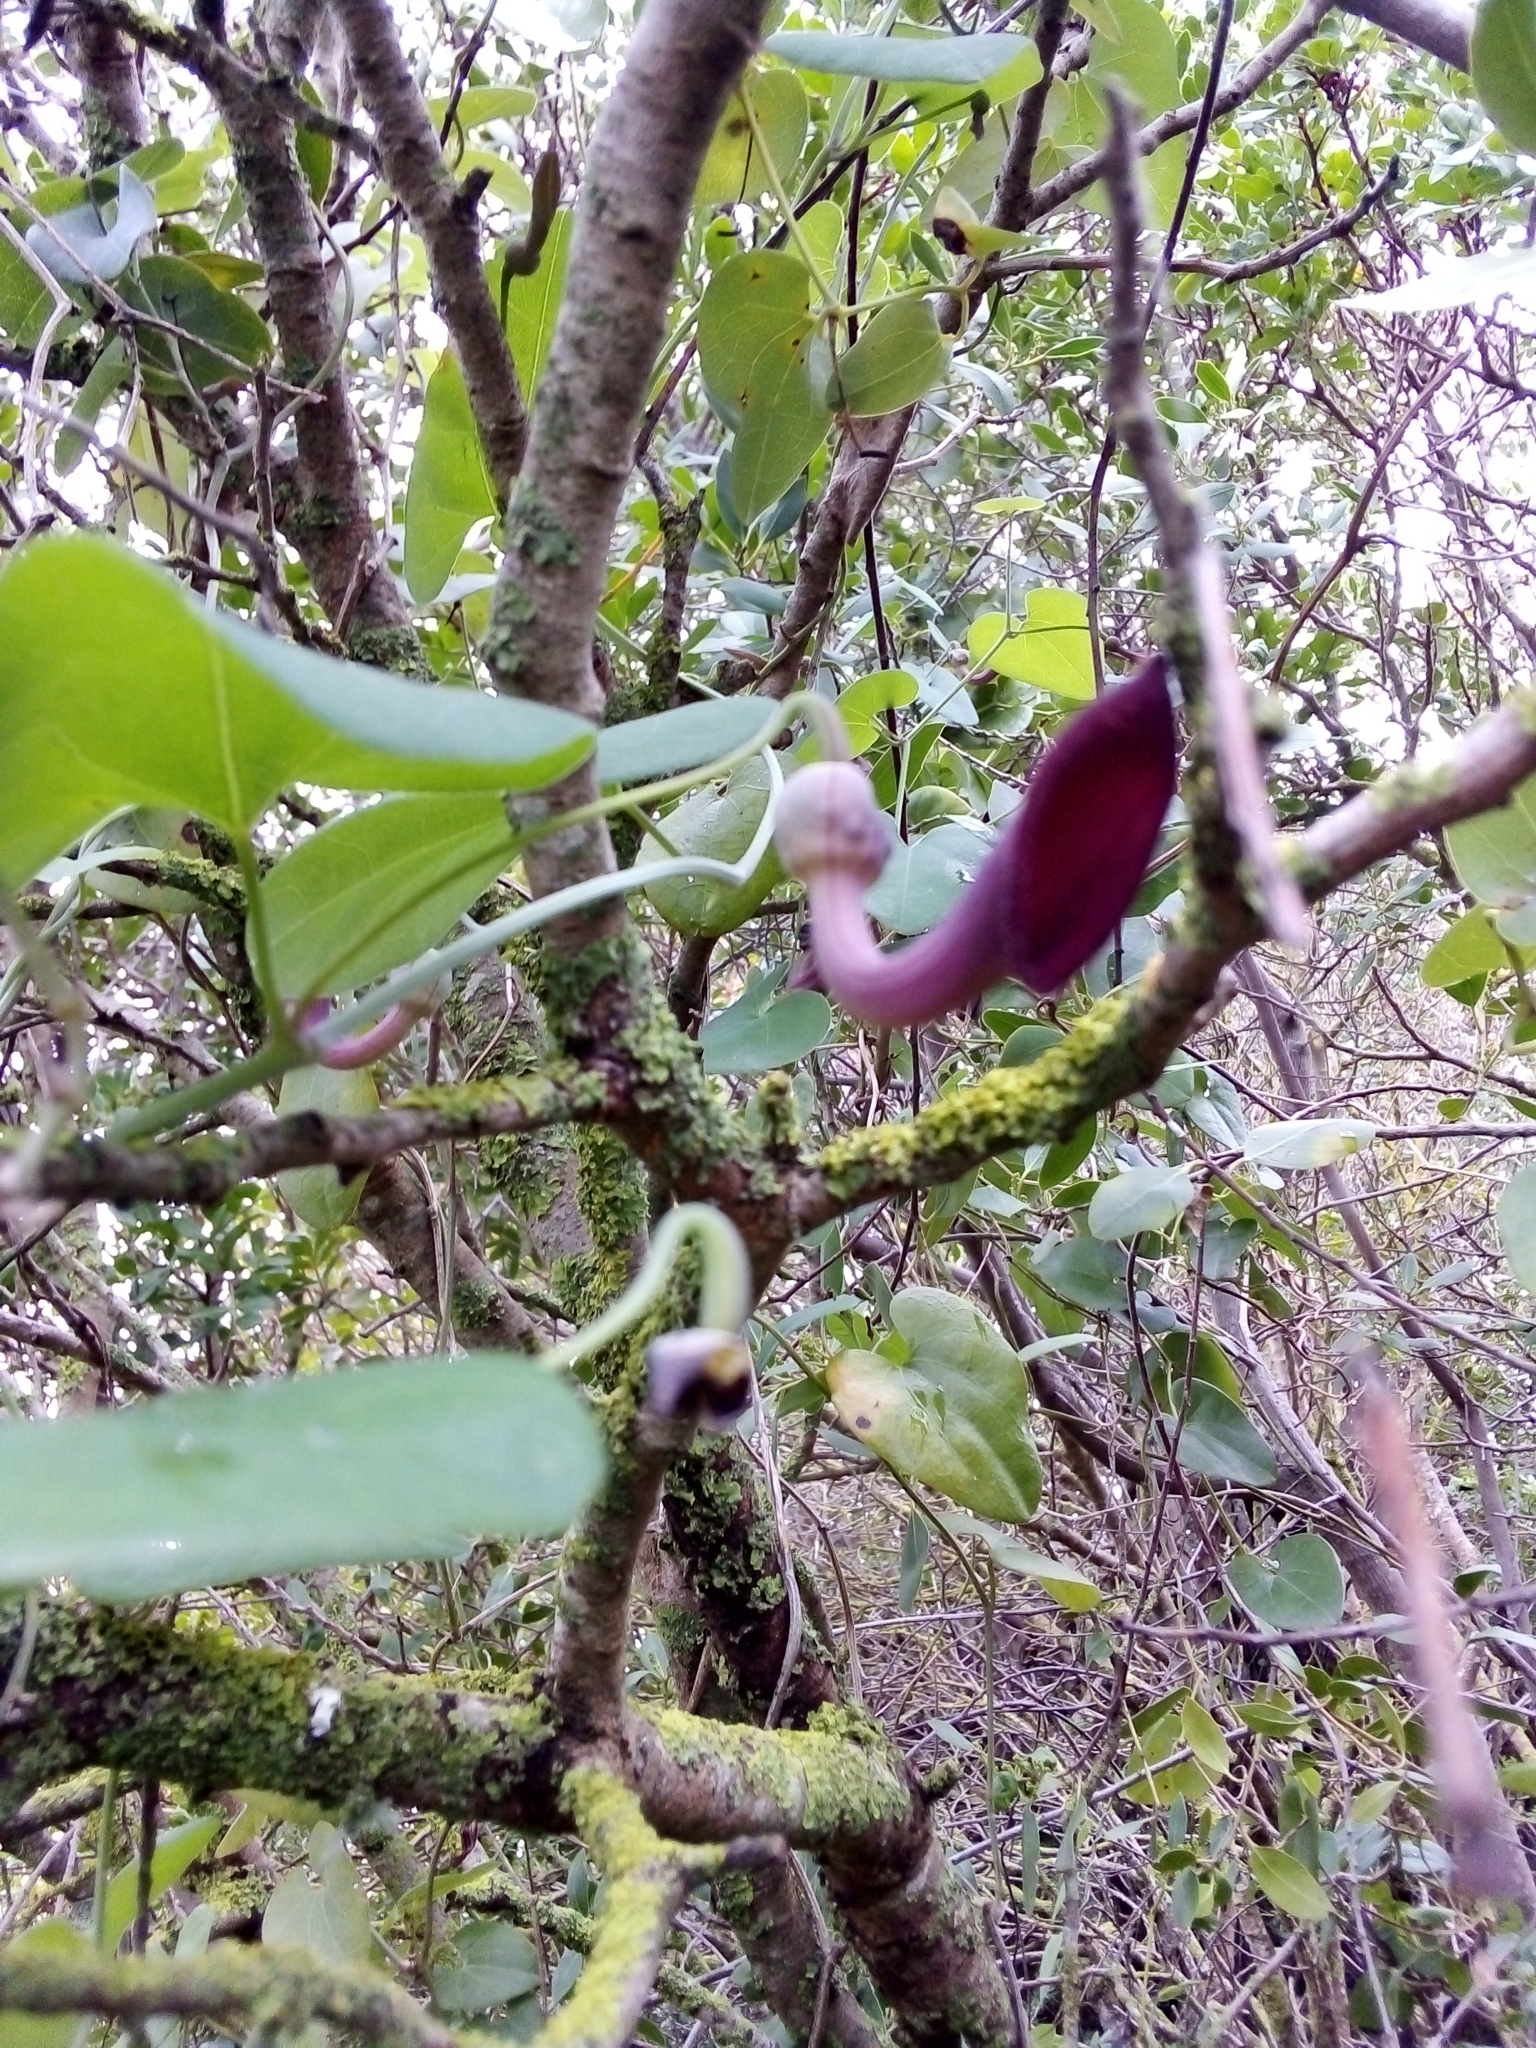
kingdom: Plantae
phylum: Tracheophyta
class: Magnoliopsida
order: Piperales
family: Aristolochiaceae
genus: Aristolochia
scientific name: Aristolochia baetica
